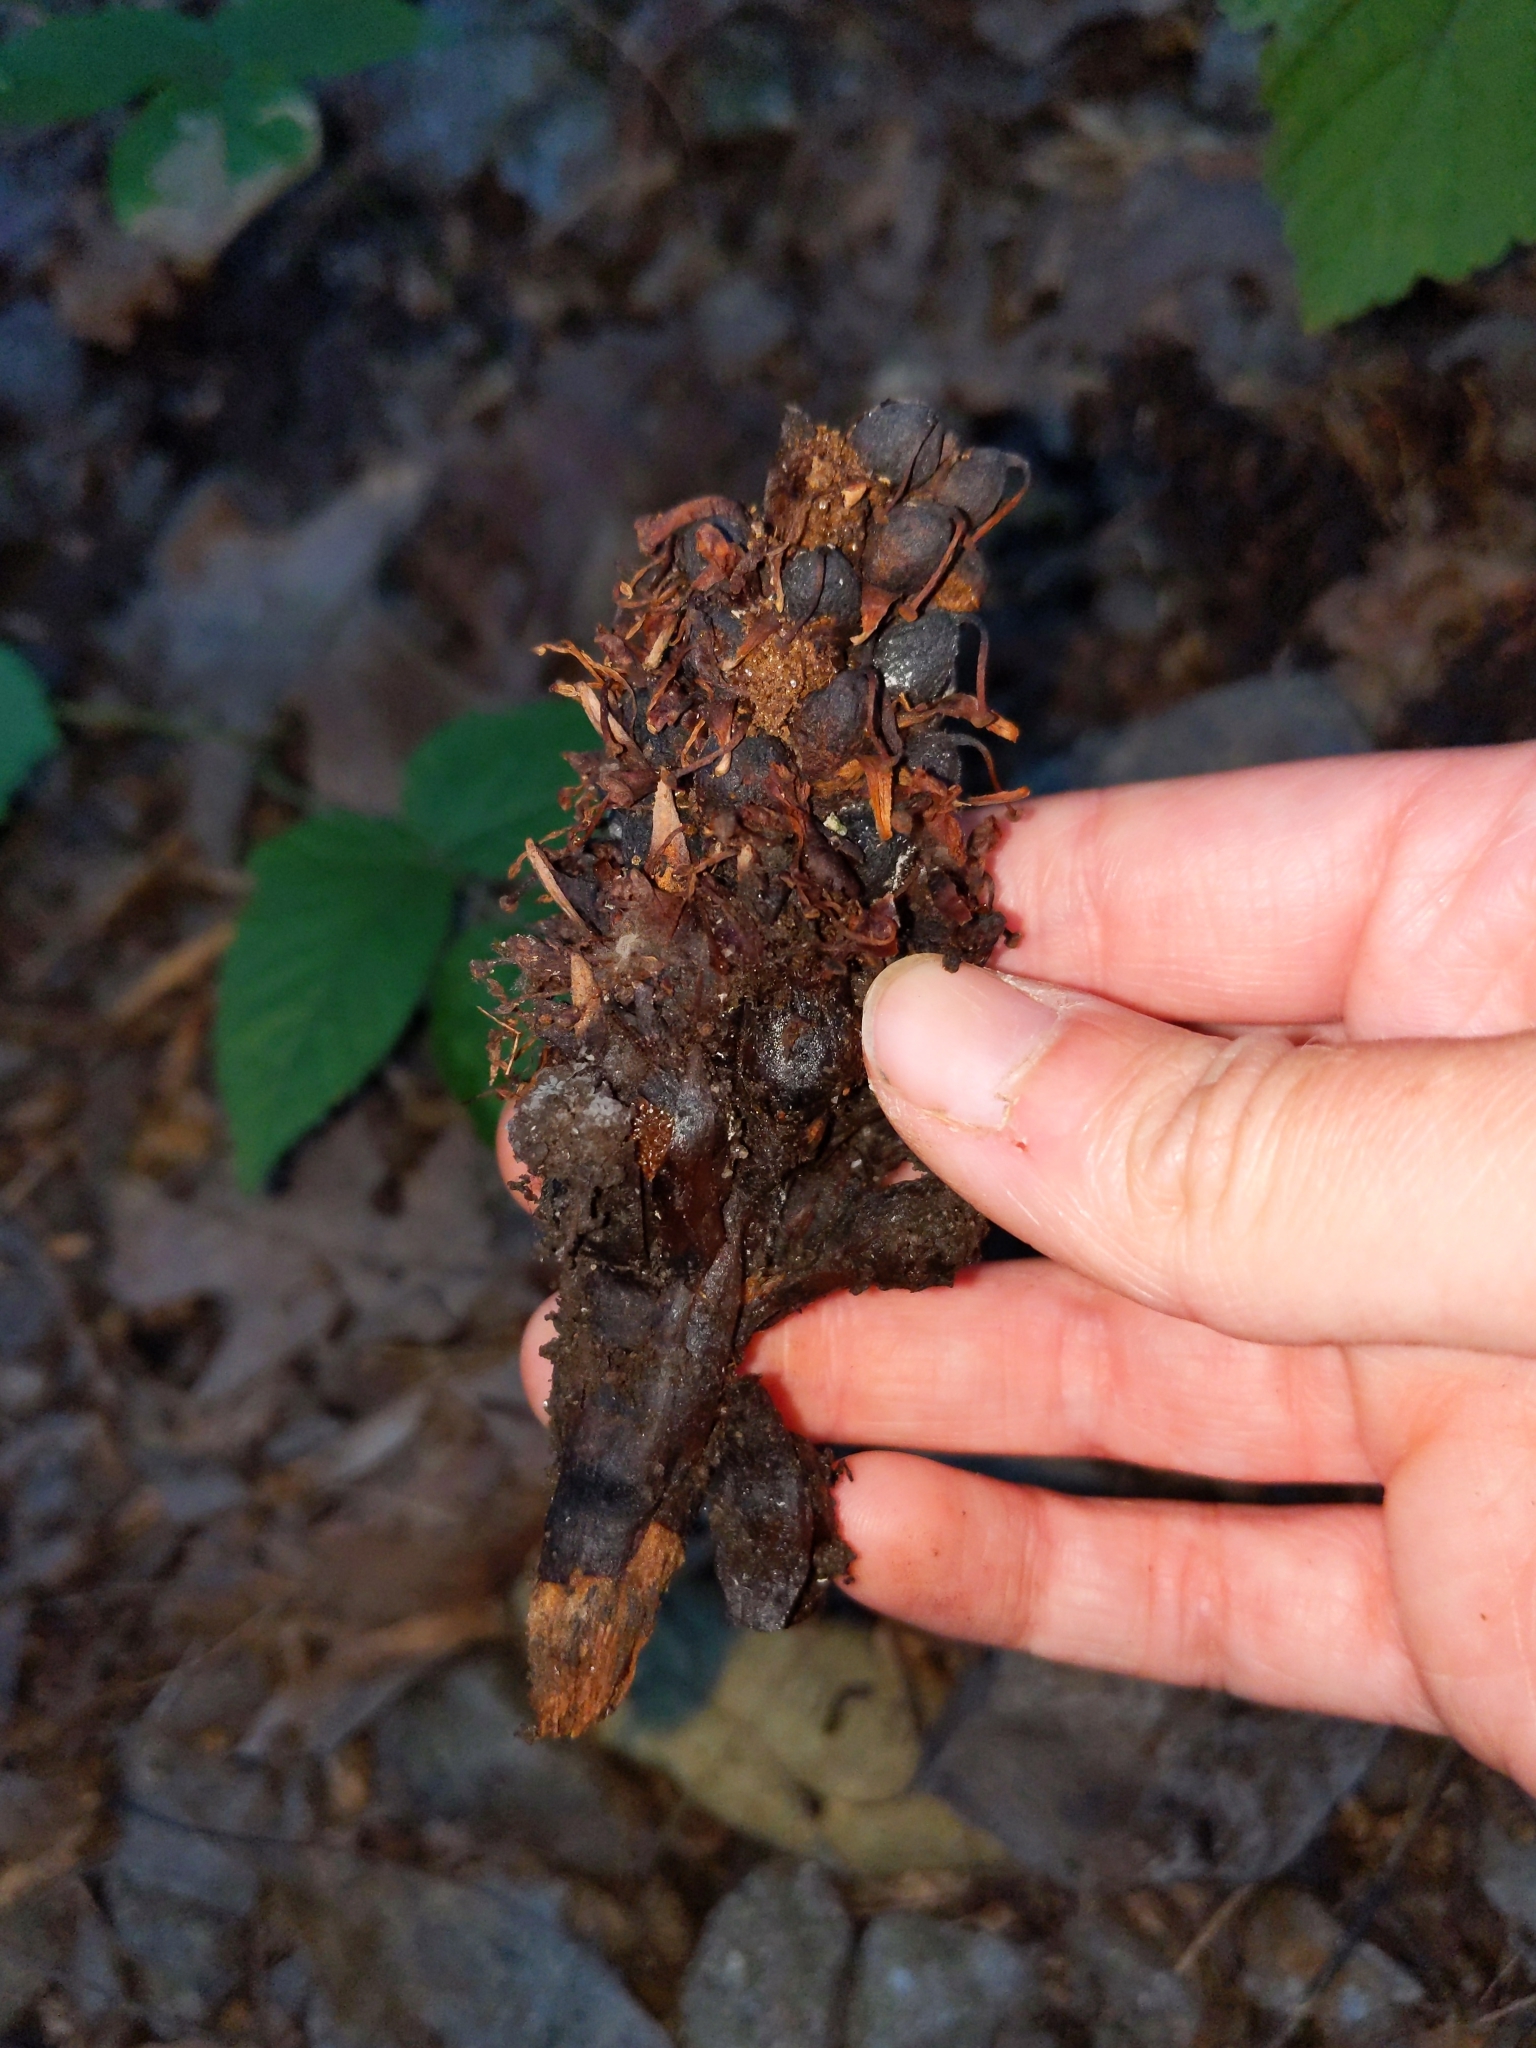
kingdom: Plantae
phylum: Tracheophyta
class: Magnoliopsida
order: Lamiales
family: Orobanchaceae
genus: Conopholis
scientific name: Conopholis americana
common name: American cancer-root
